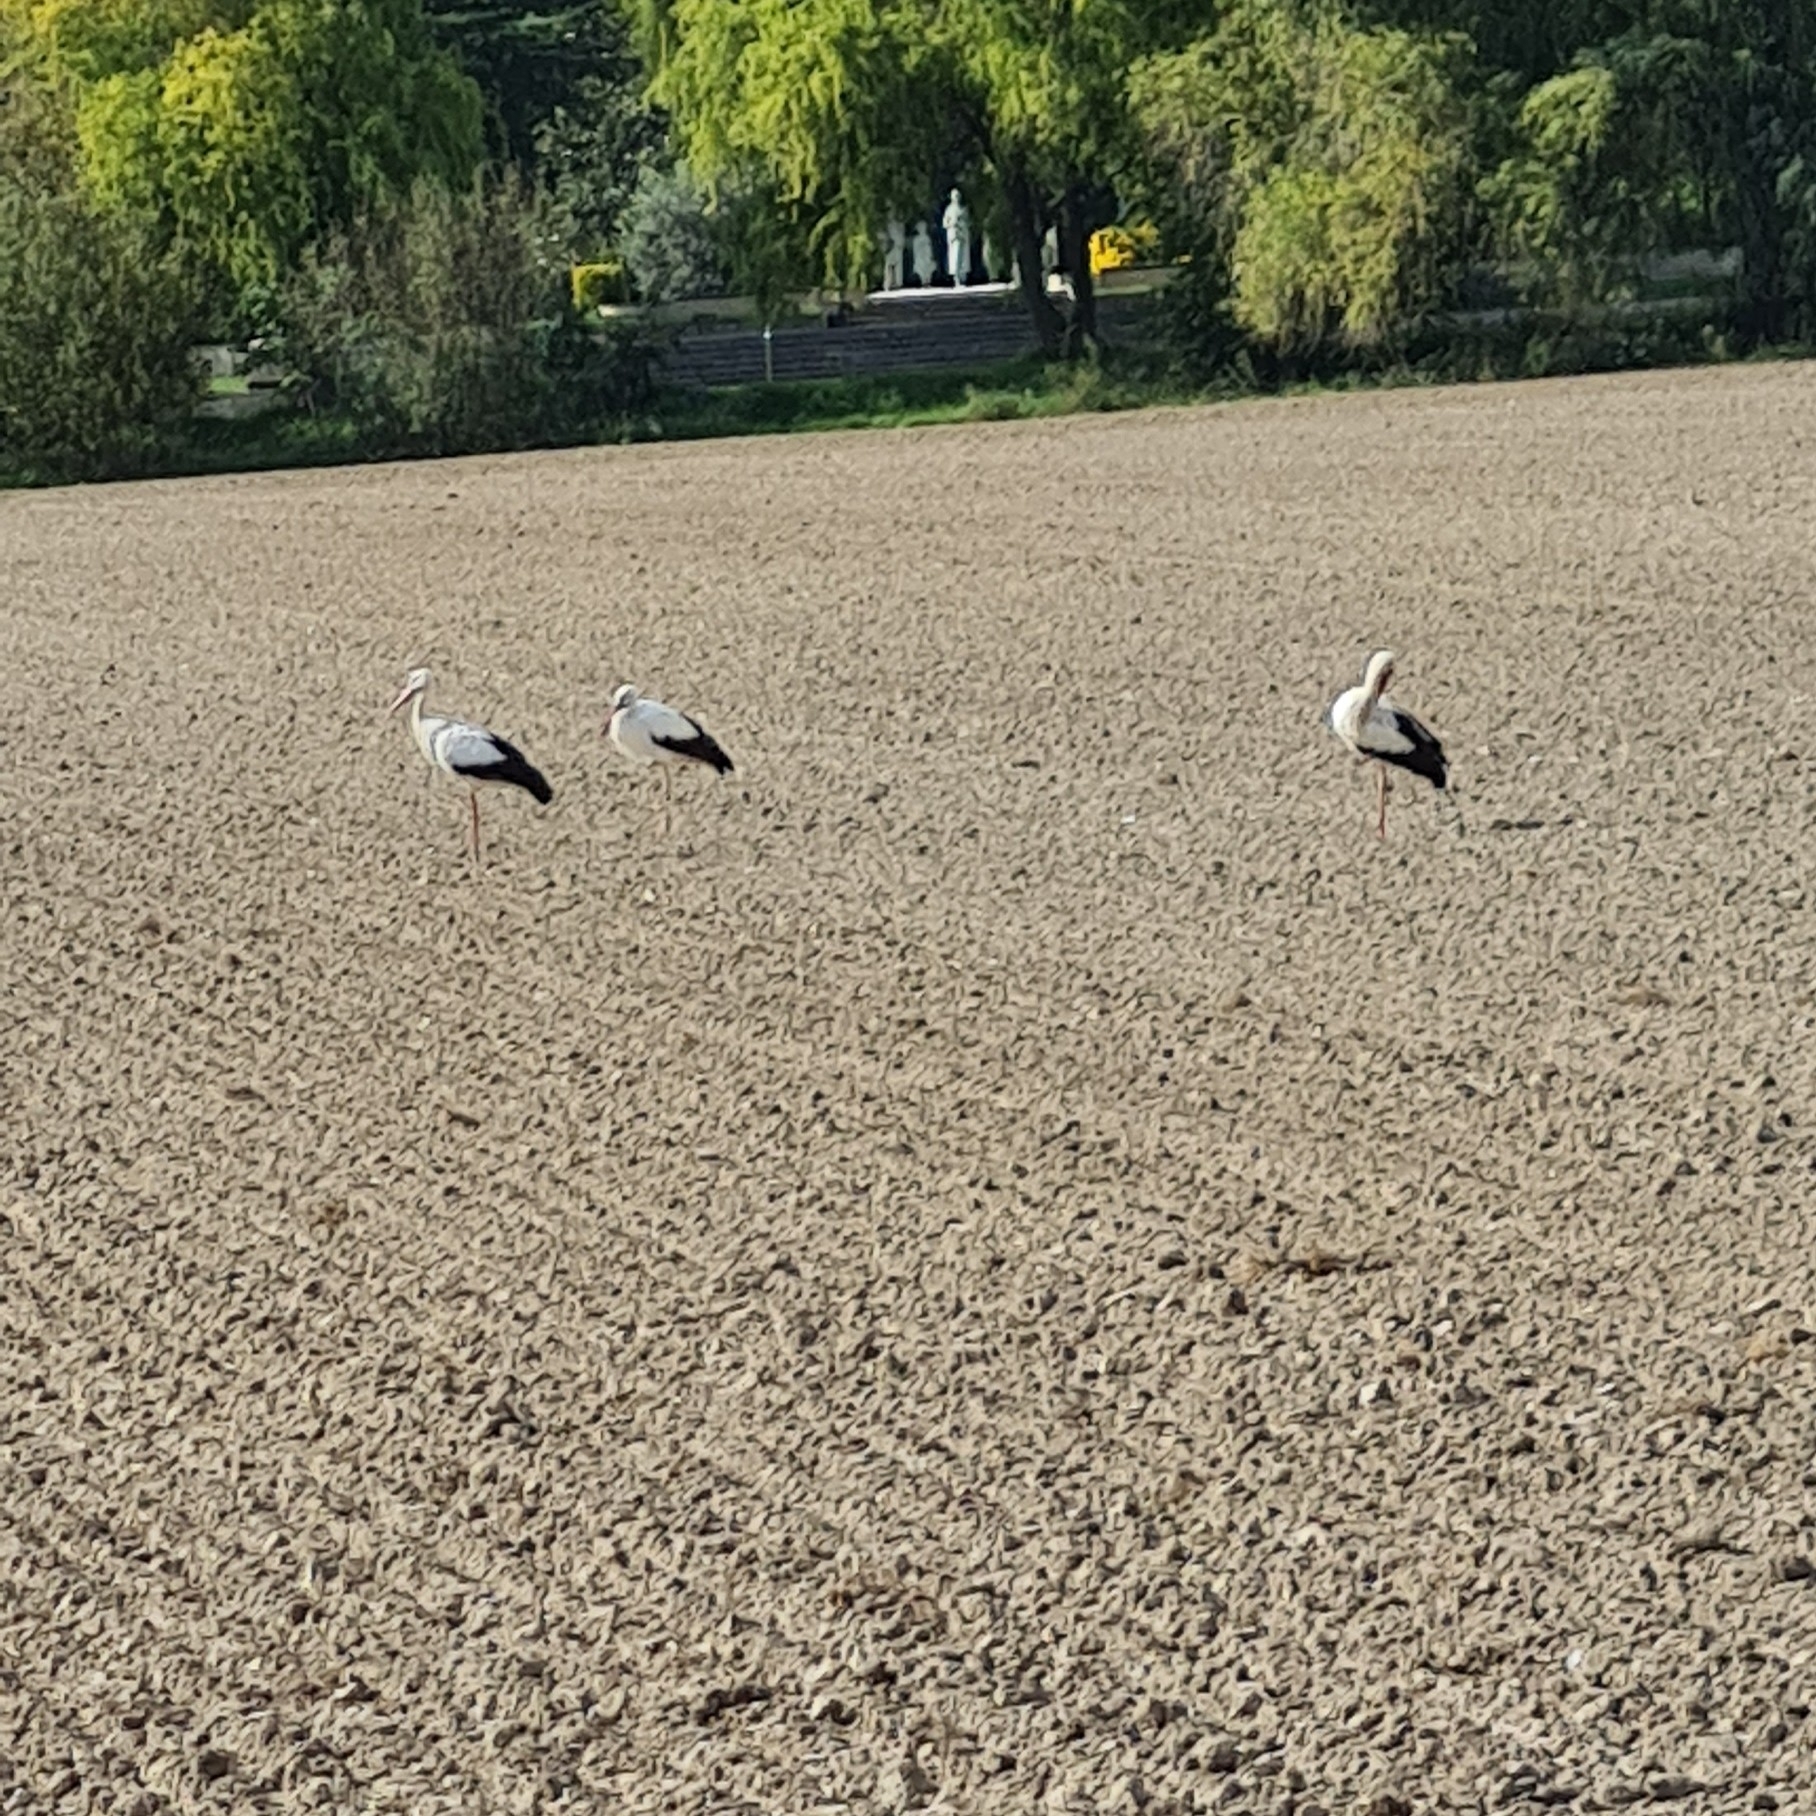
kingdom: Animalia
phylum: Chordata
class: Aves
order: Ciconiiformes
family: Ciconiidae
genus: Ciconia
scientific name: Ciconia ciconia
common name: White stork
